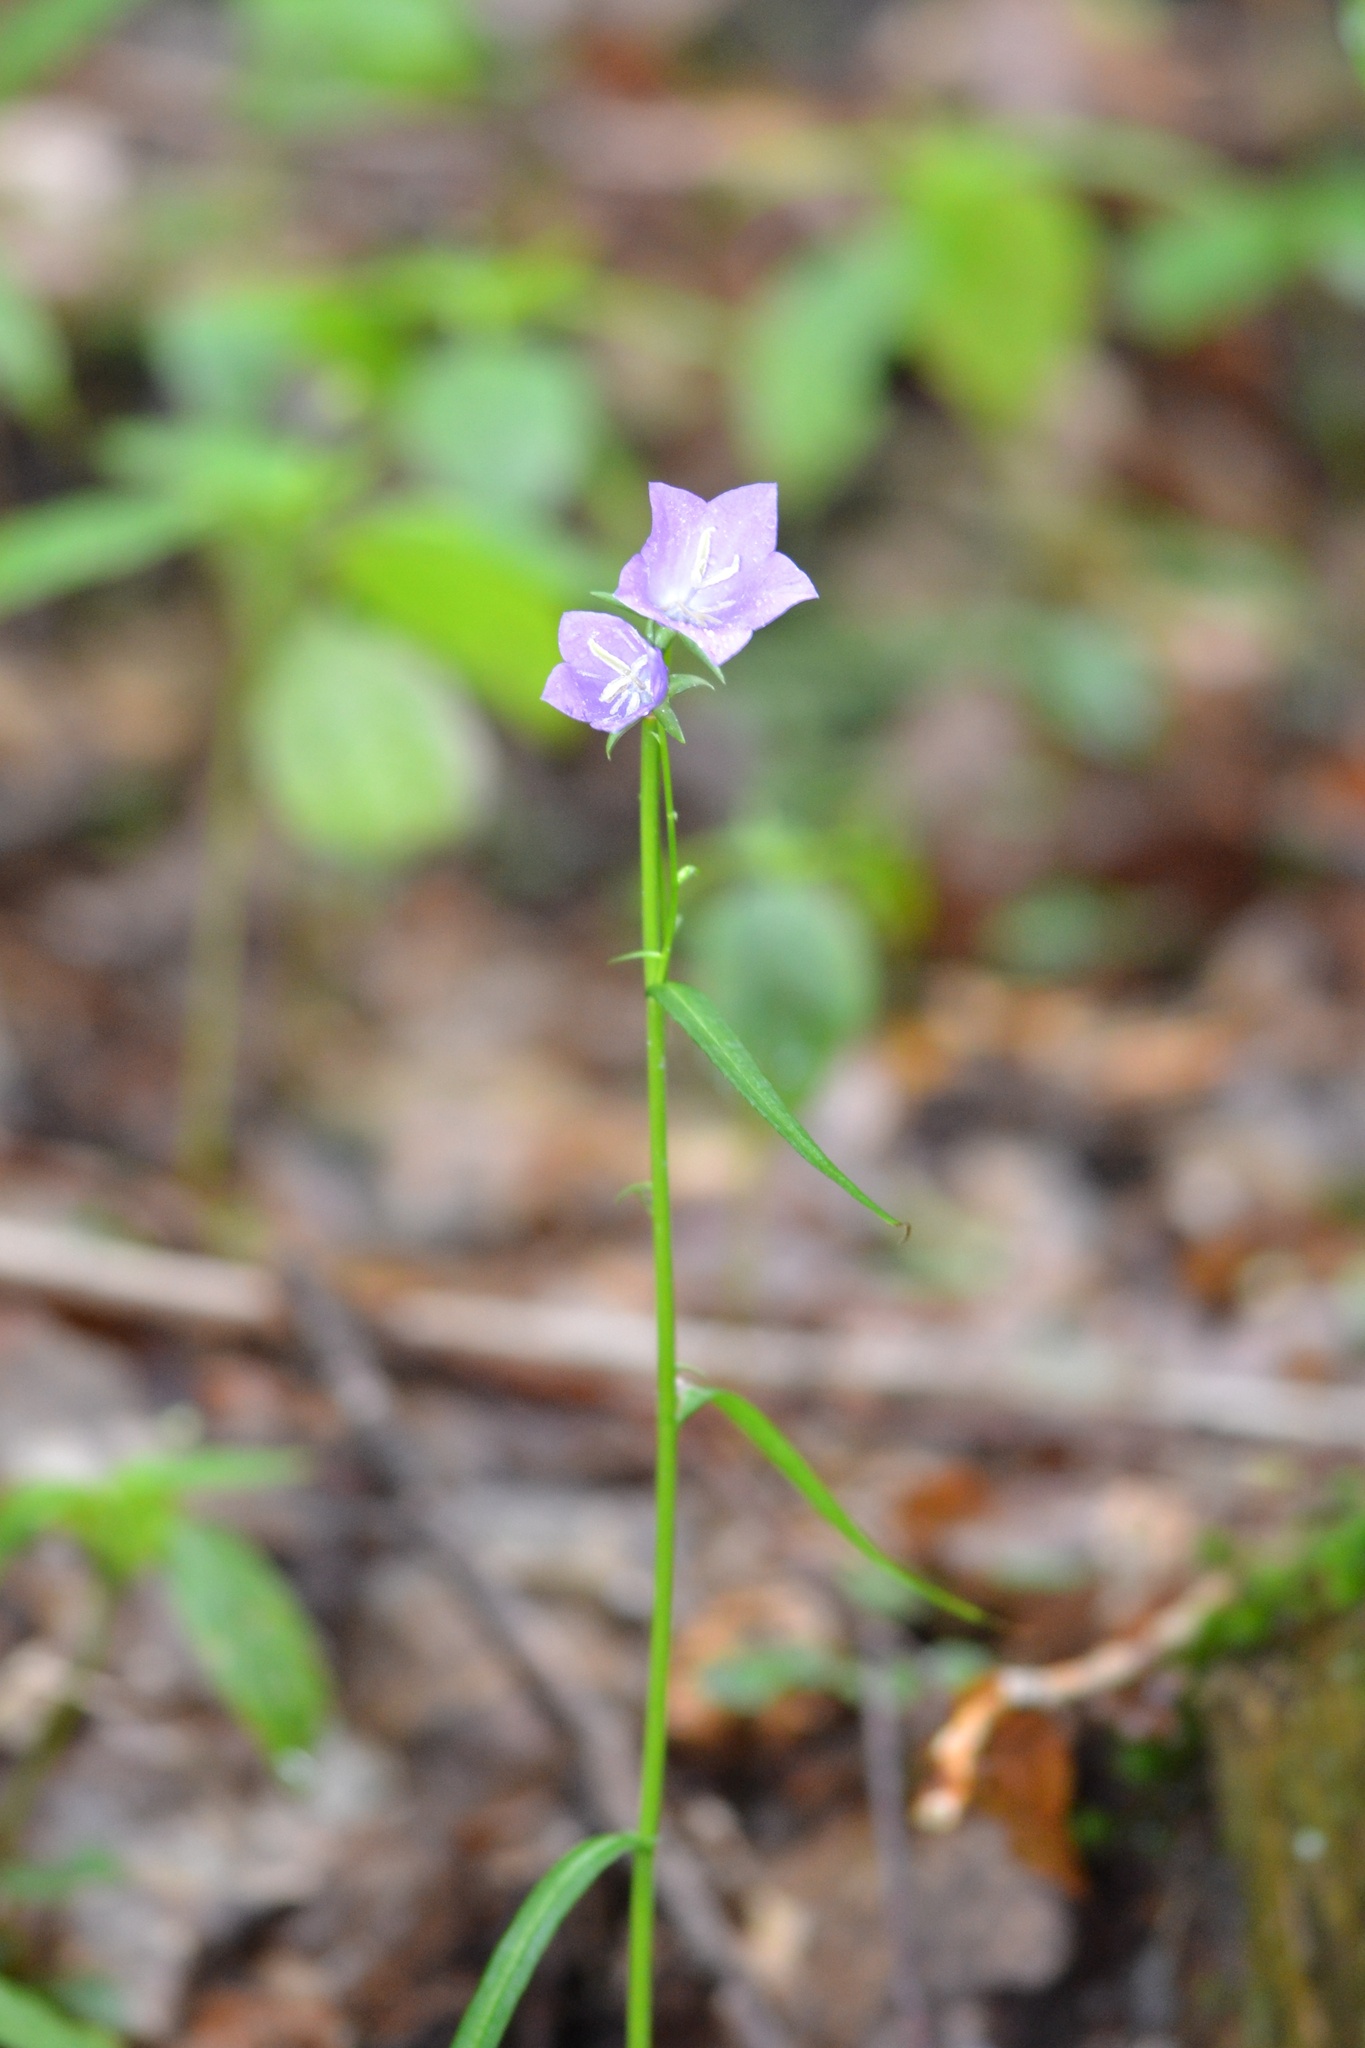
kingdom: Plantae
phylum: Tracheophyta
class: Magnoliopsida
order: Asterales
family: Campanulaceae
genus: Campanula
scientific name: Campanula persicifolia
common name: Peach-leaved bellflower
